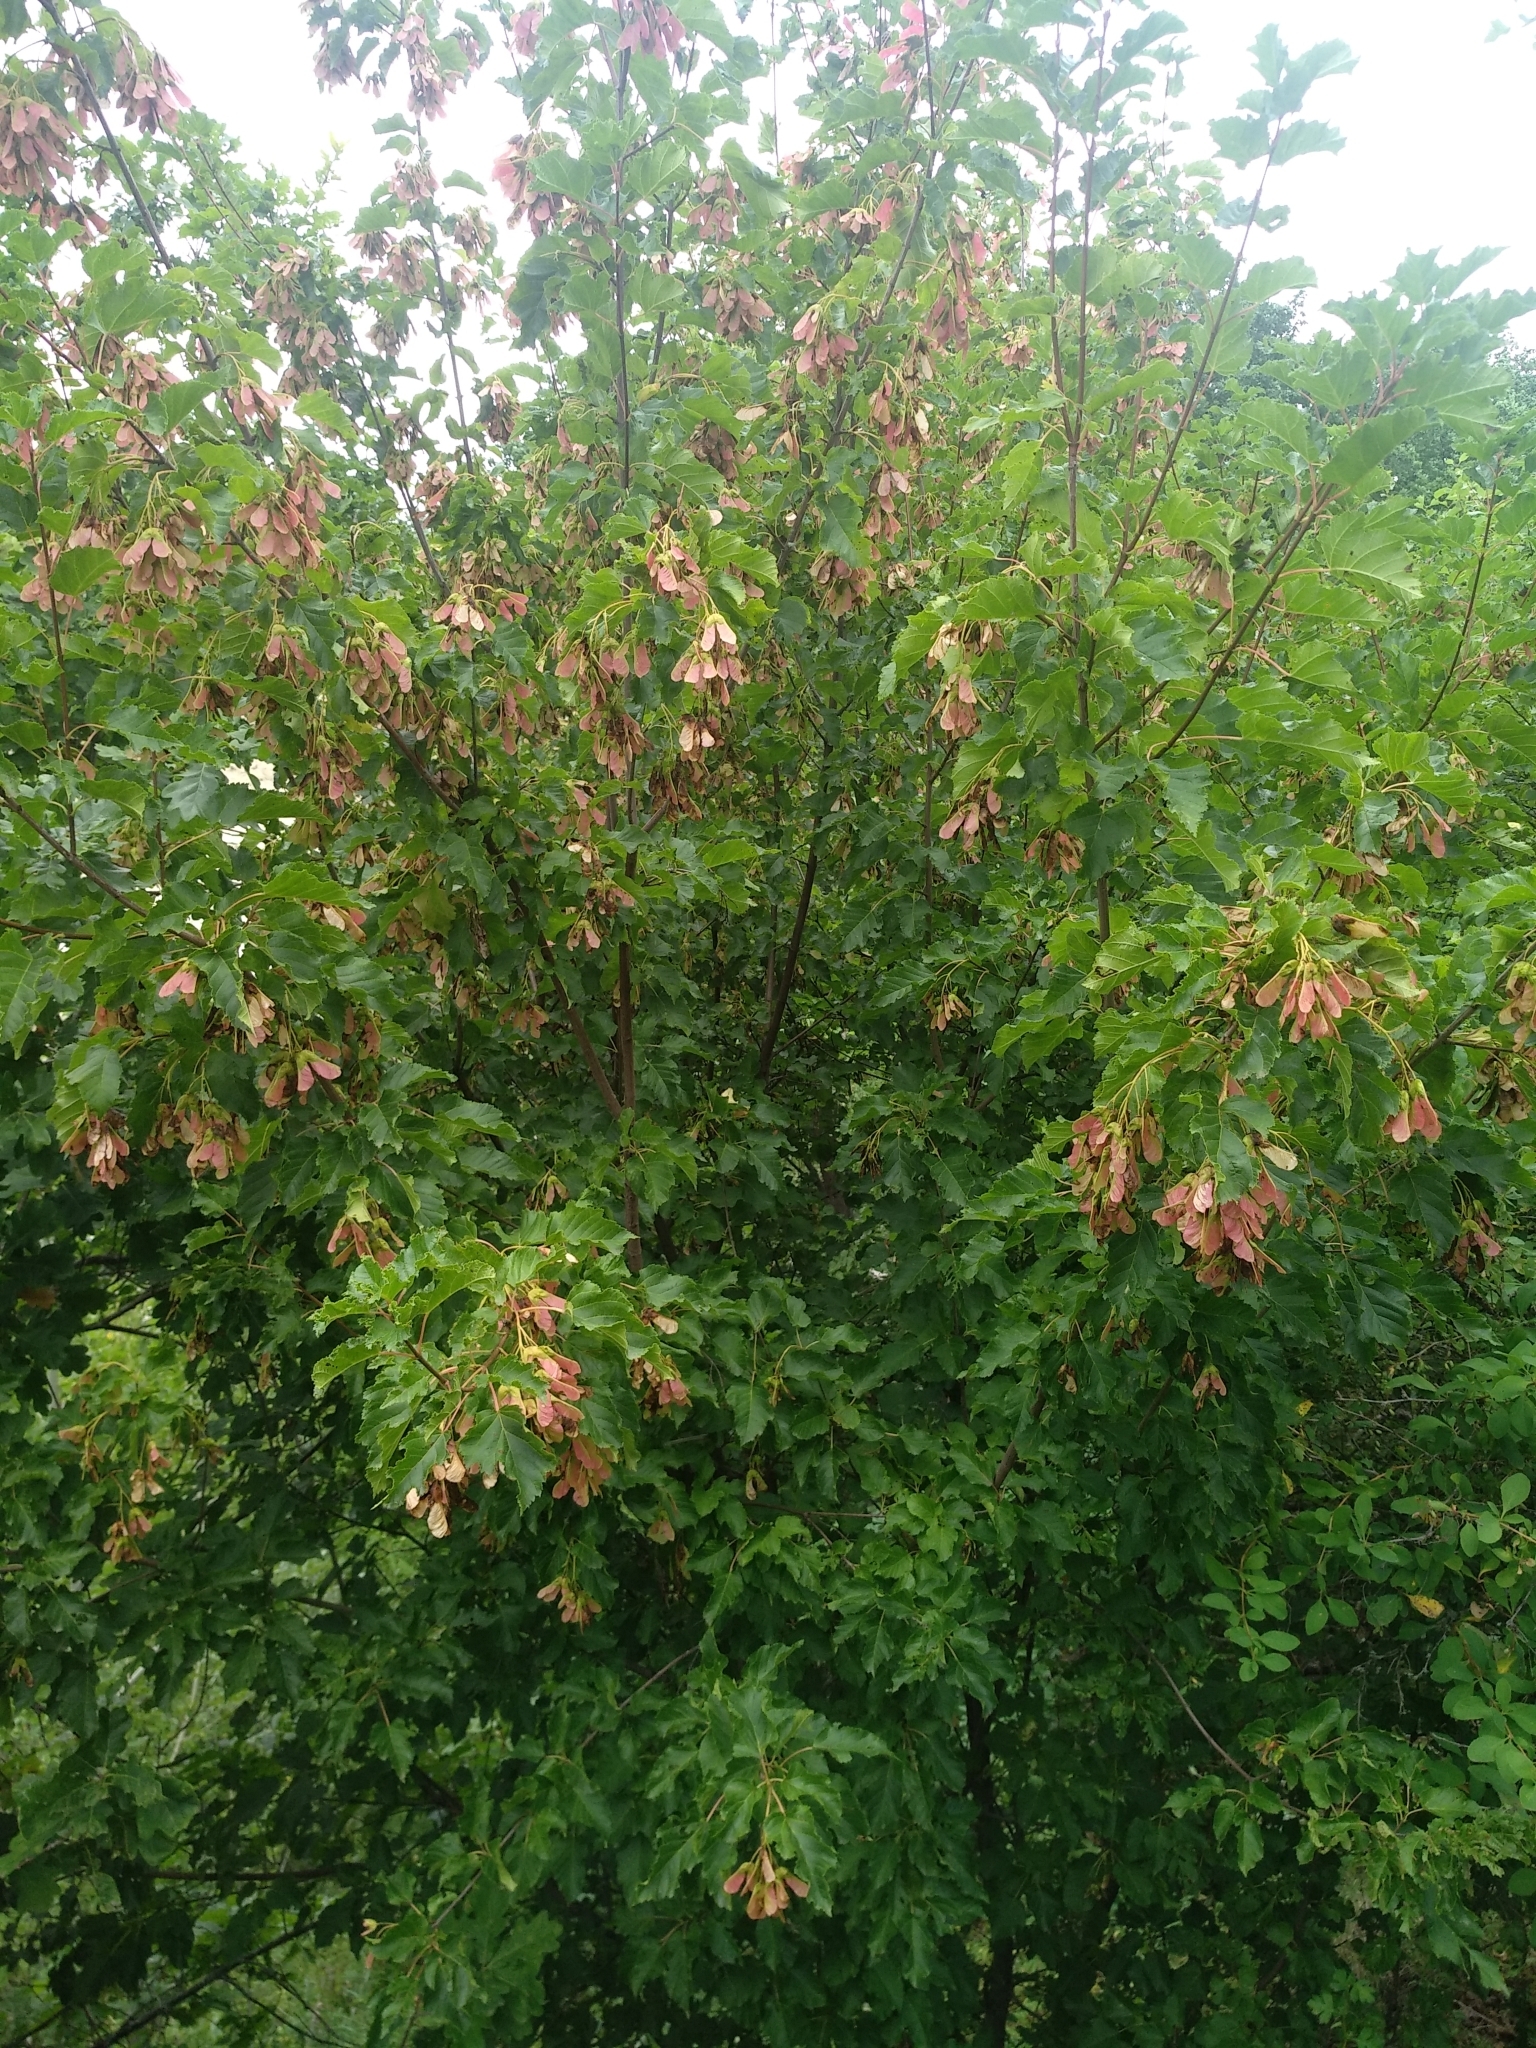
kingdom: Plantae
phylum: Tracheophyta
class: Magnoliopsida
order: Sapindales
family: Sapindaceae
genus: Acer
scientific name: Acer tataricum
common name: Tartar maple
